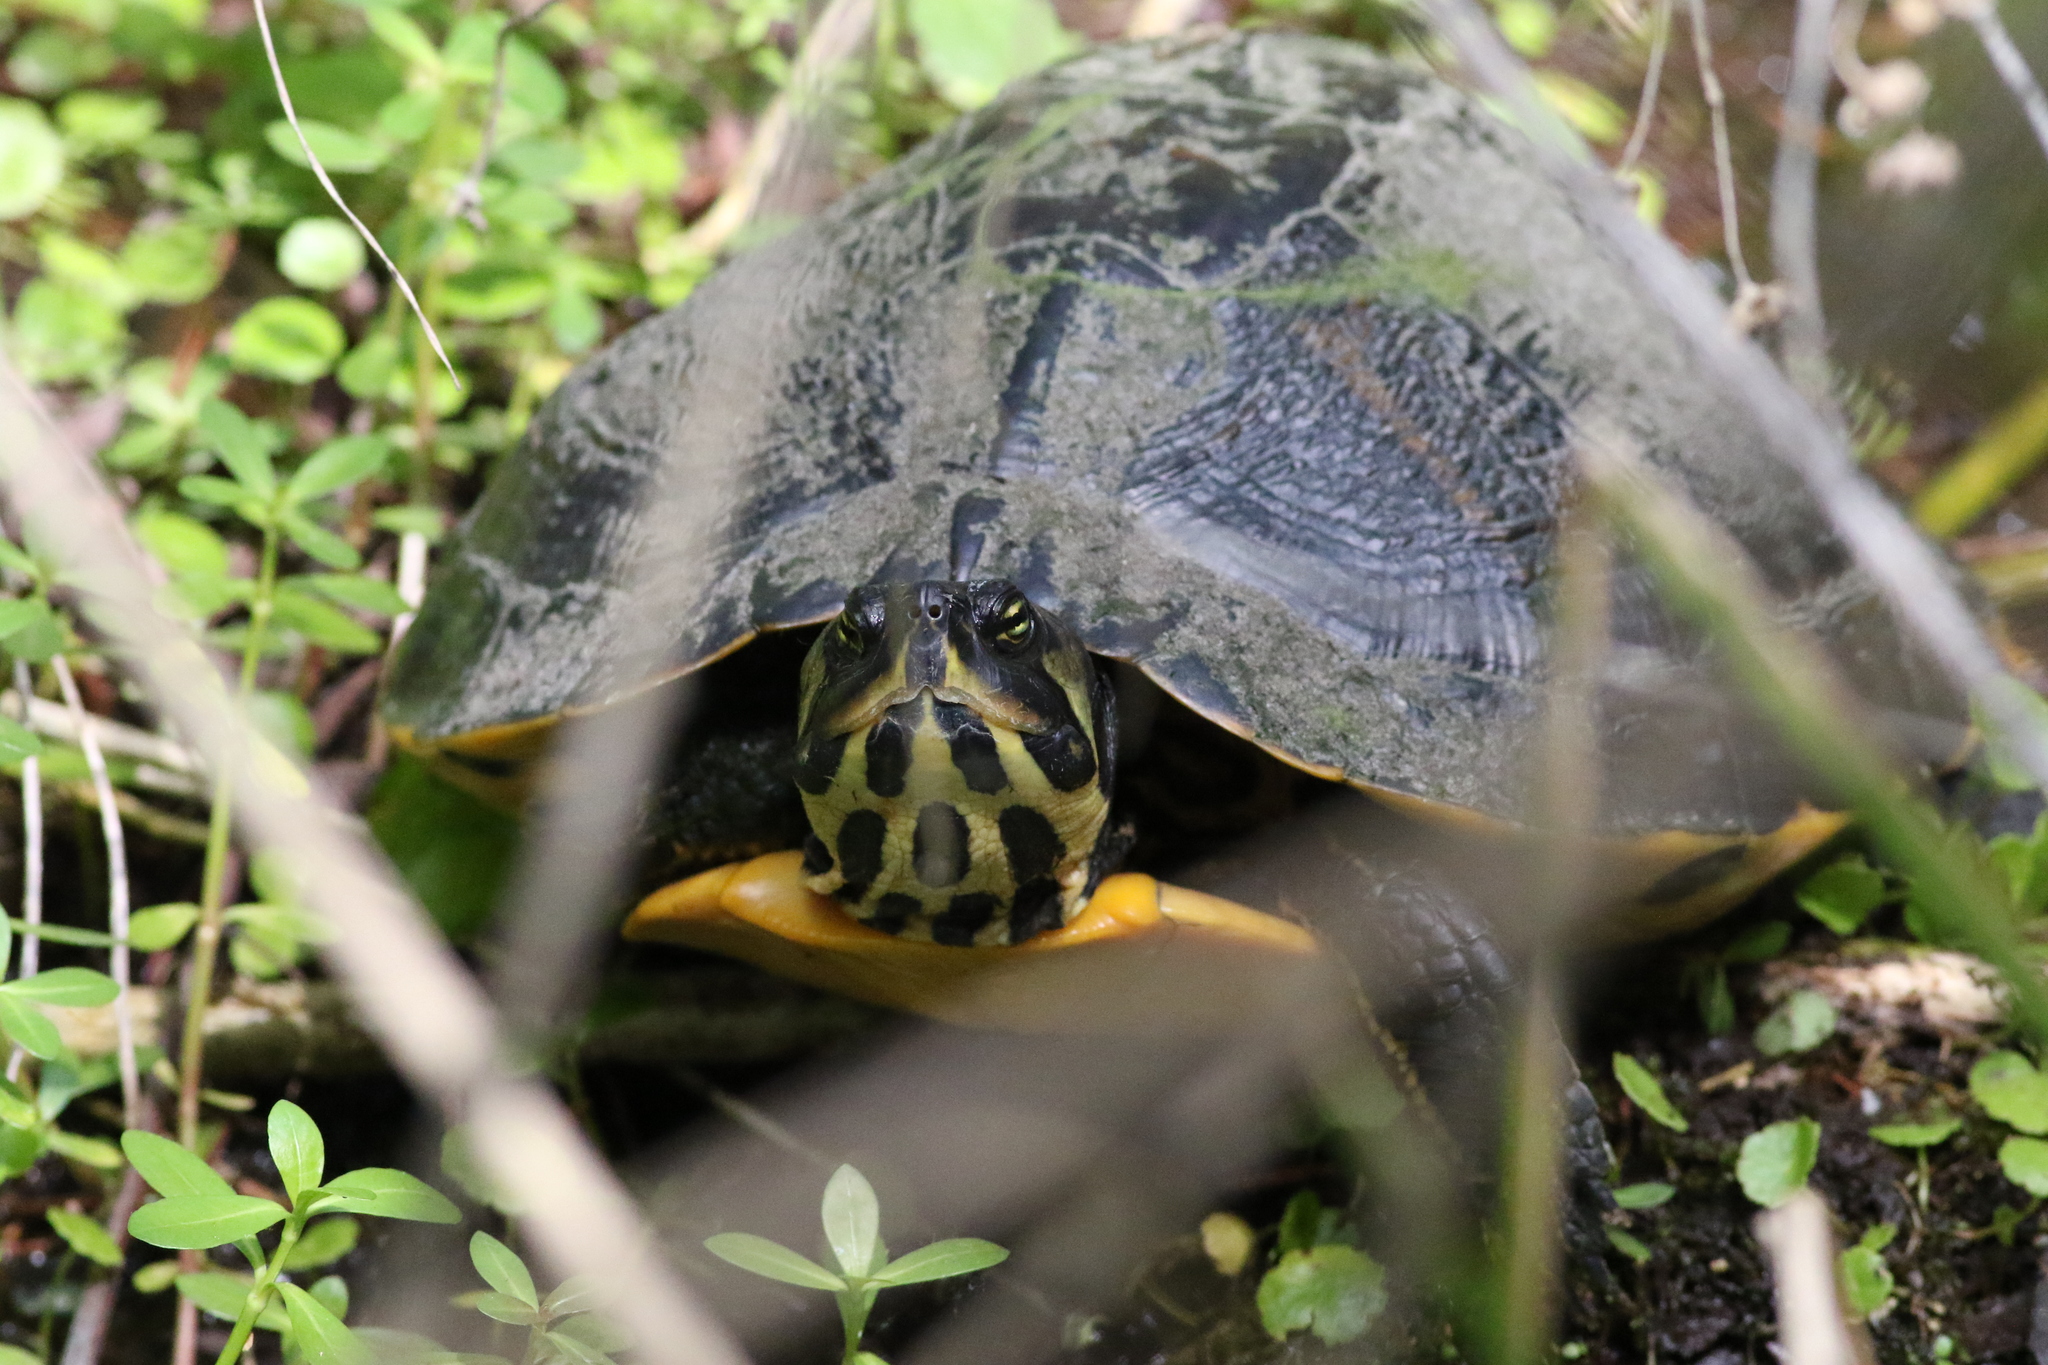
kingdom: Animalia
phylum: Chordata
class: Testudines
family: Emydidae
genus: Trachemys
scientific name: Trachemys scripta
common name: Slider
